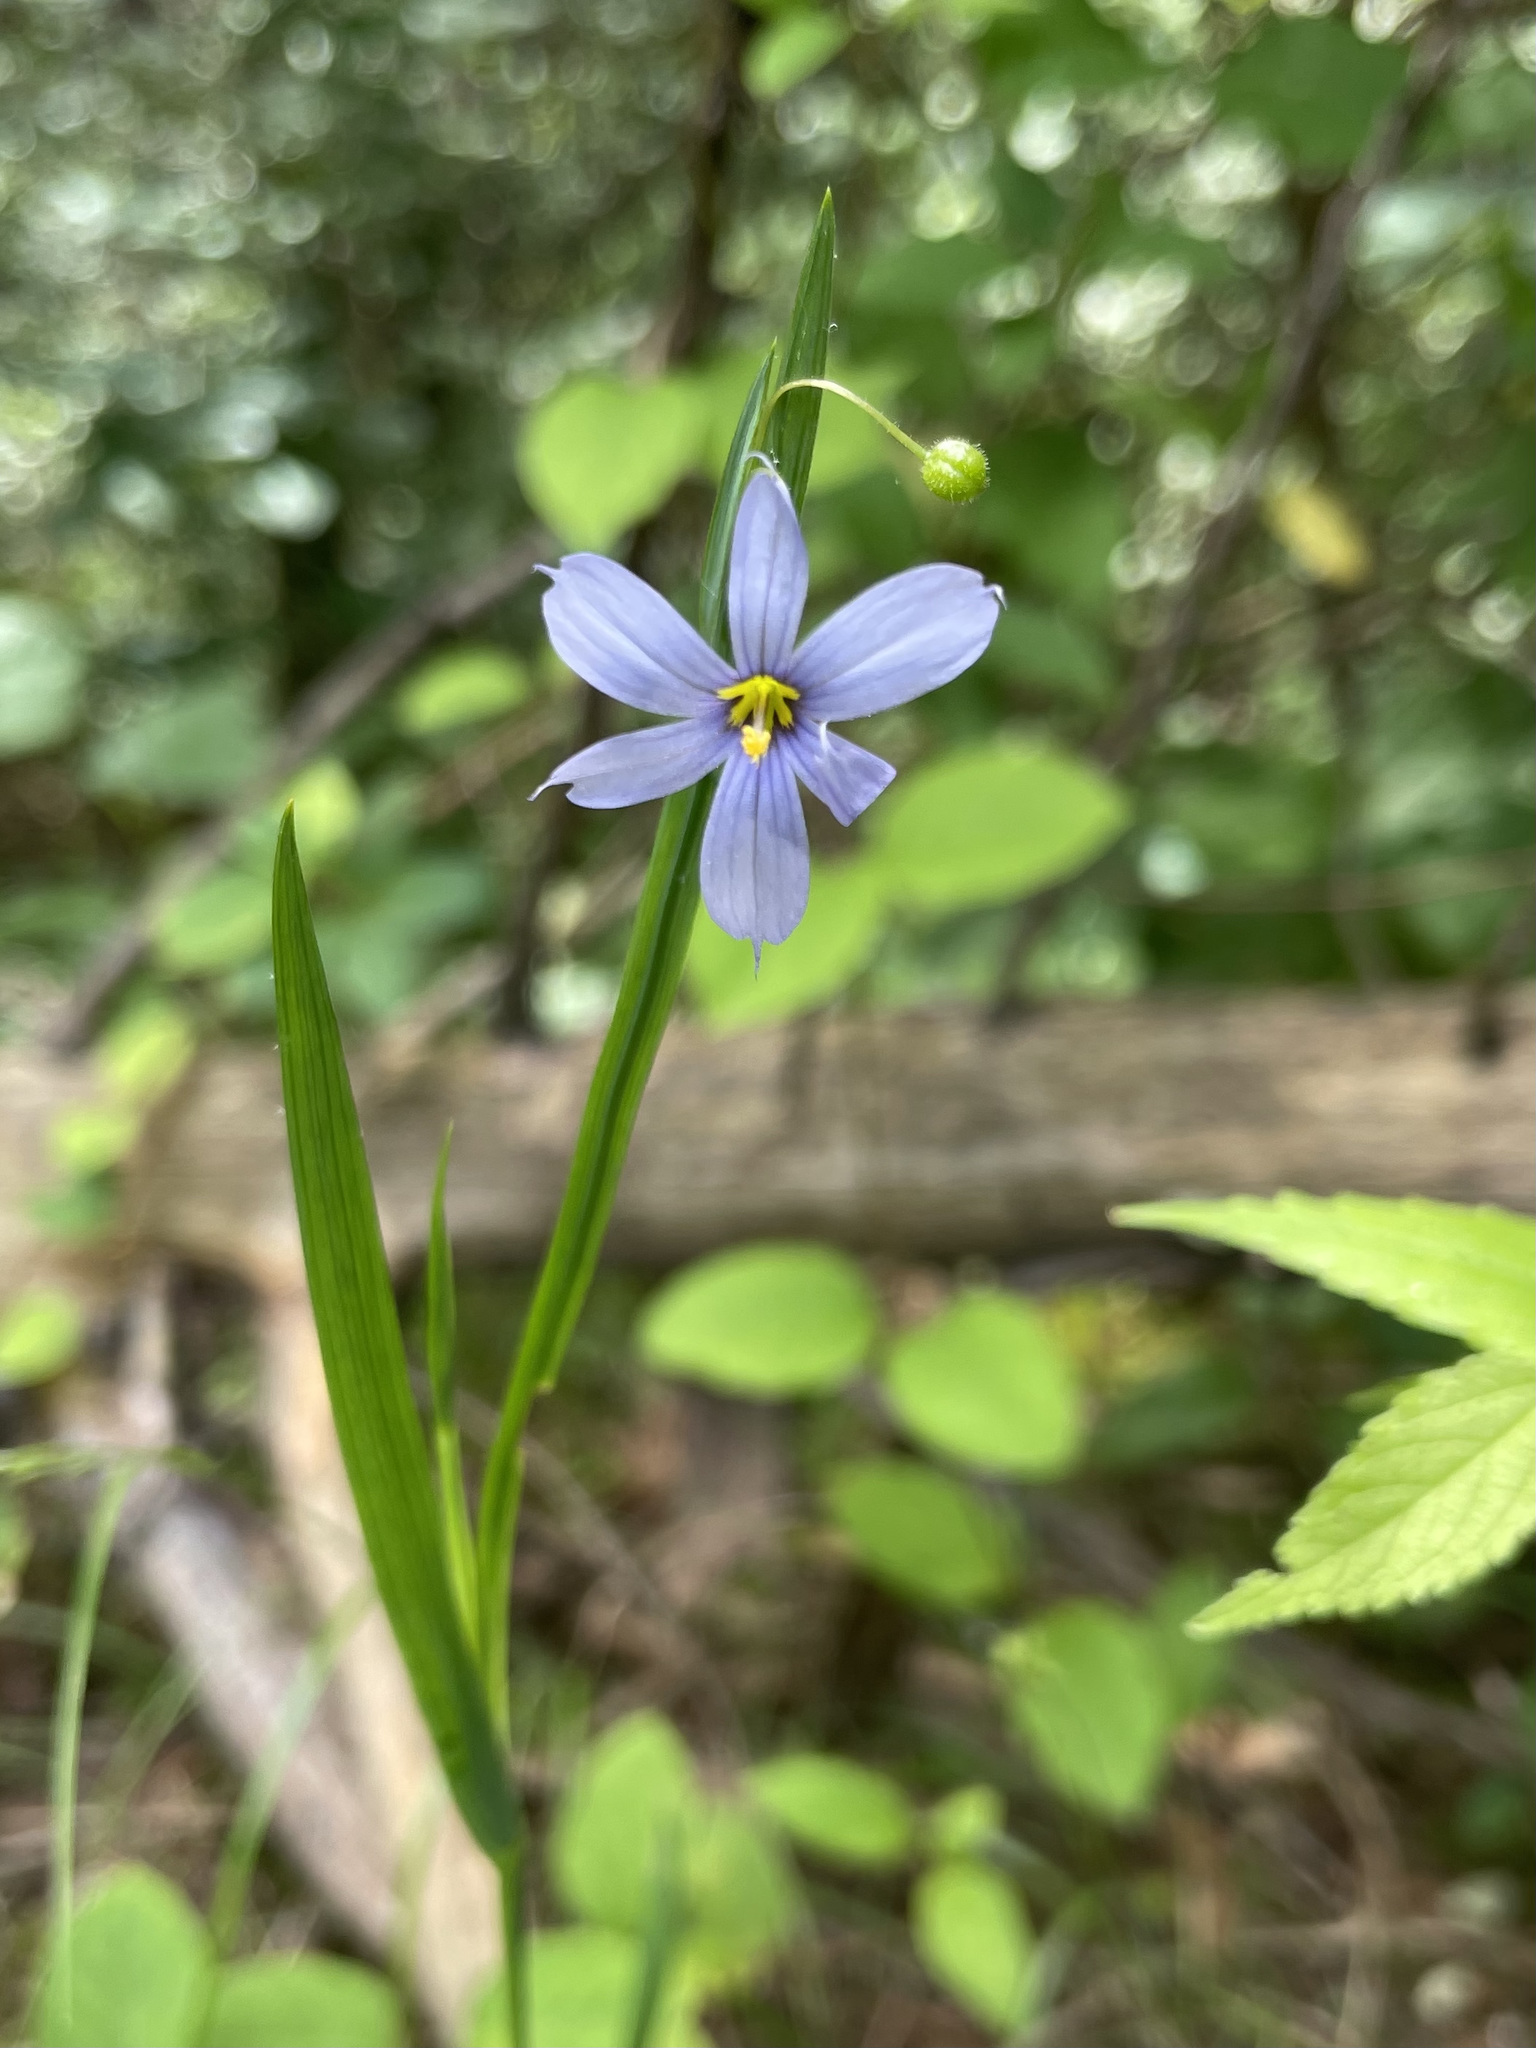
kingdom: Plantae
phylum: Tracheophyta
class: Liliopsida
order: Asparagales
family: Iridaceae
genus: Sisyrinchium
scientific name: Sisyrinchium campestre
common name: Prairie blue-eyed-grass
